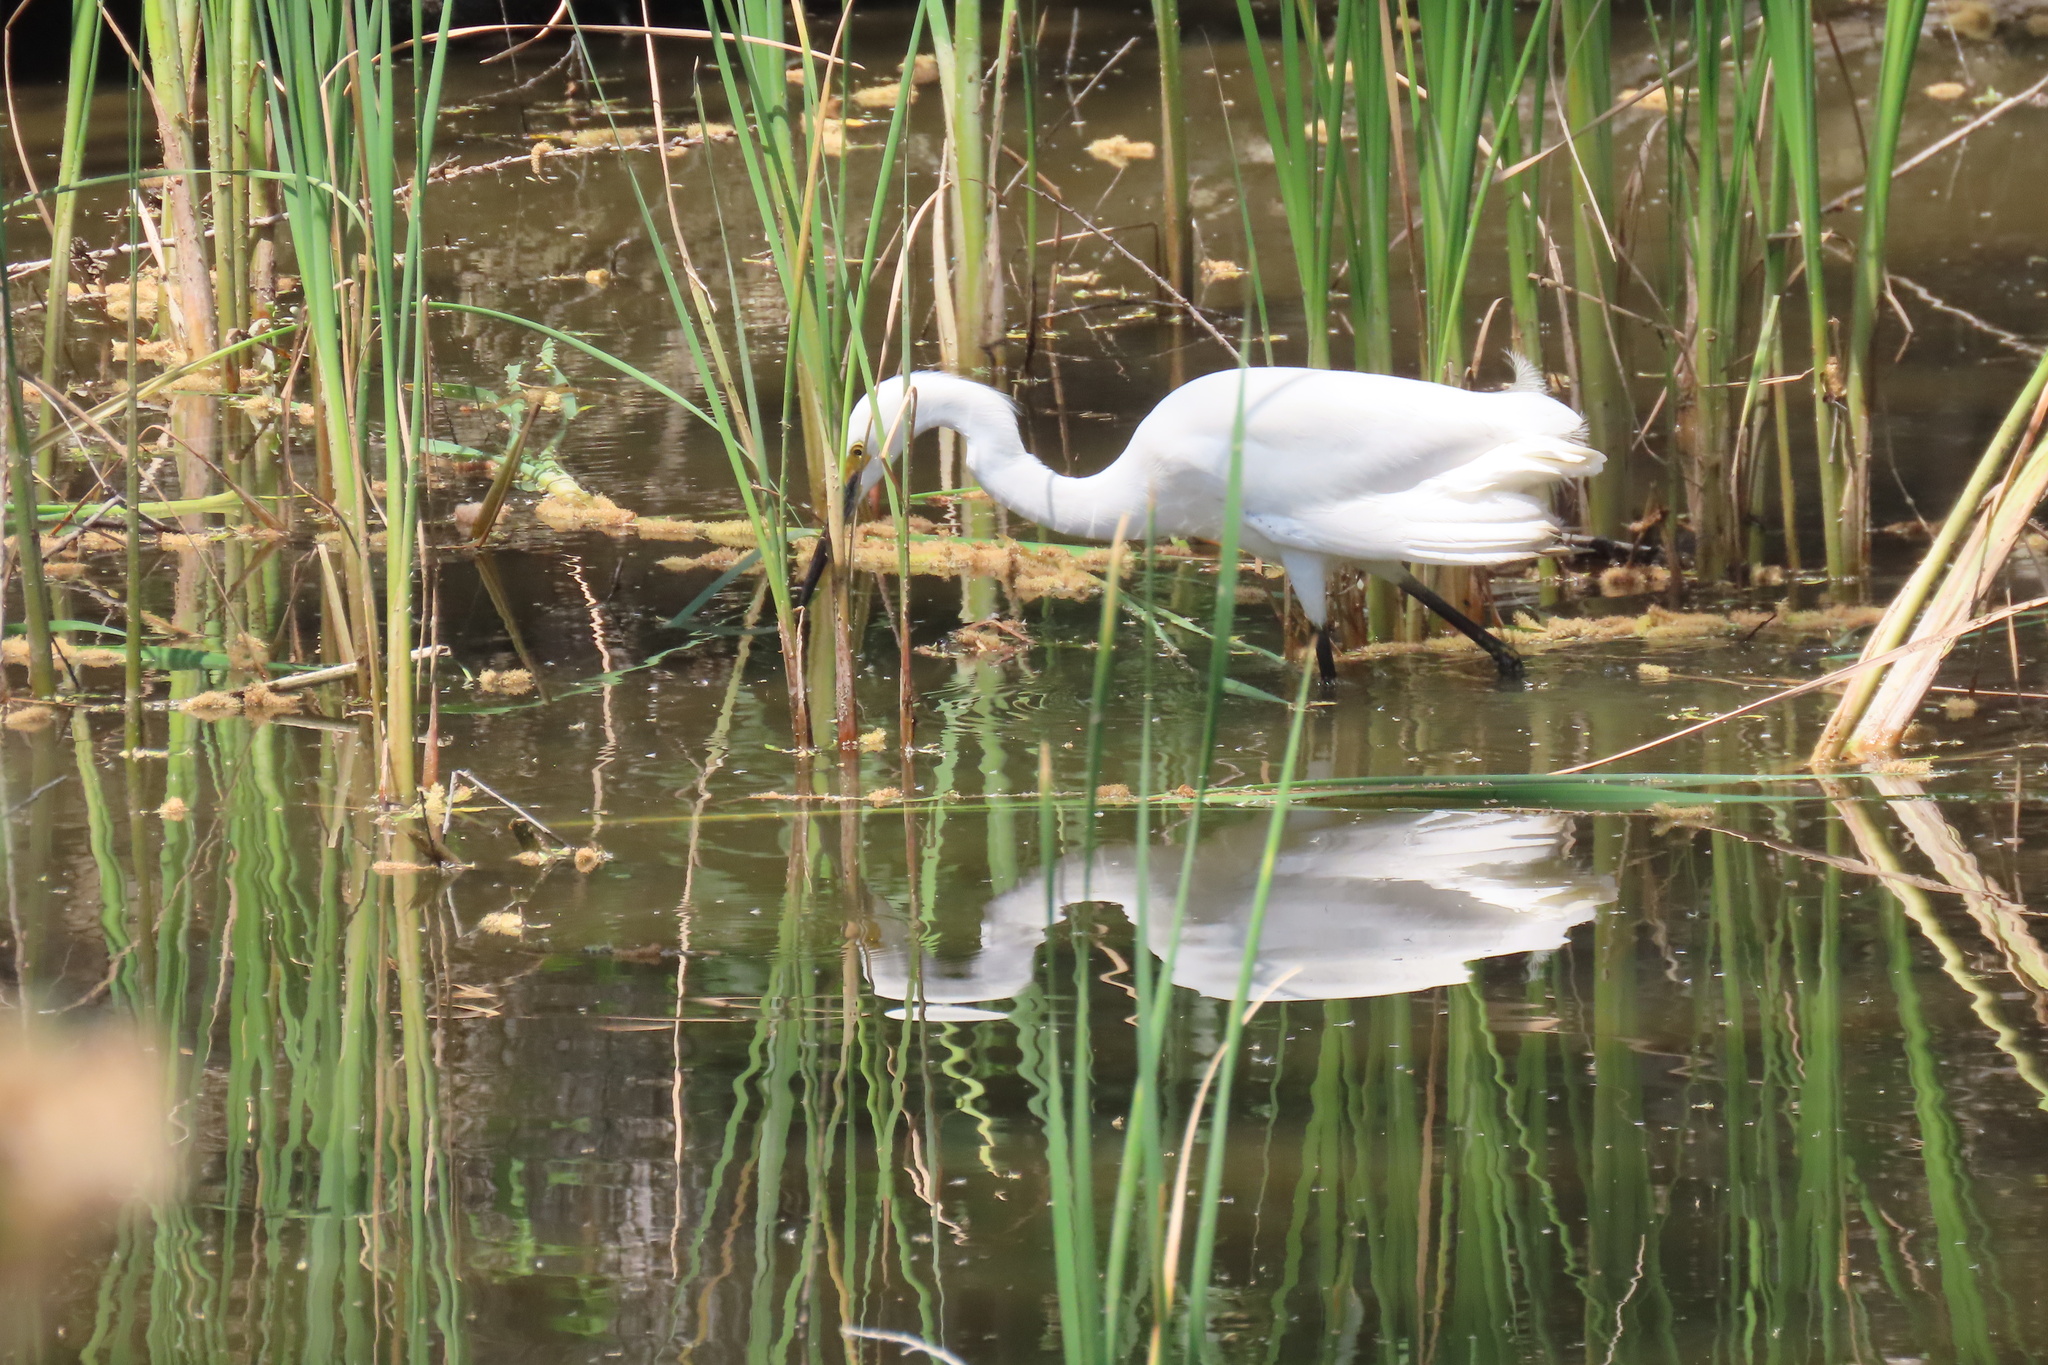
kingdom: Animalia
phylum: Chordata
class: Aves
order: Pelecaniformes
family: Ardeidae
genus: Egretta
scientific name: Egretta thula
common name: Snowy egret
